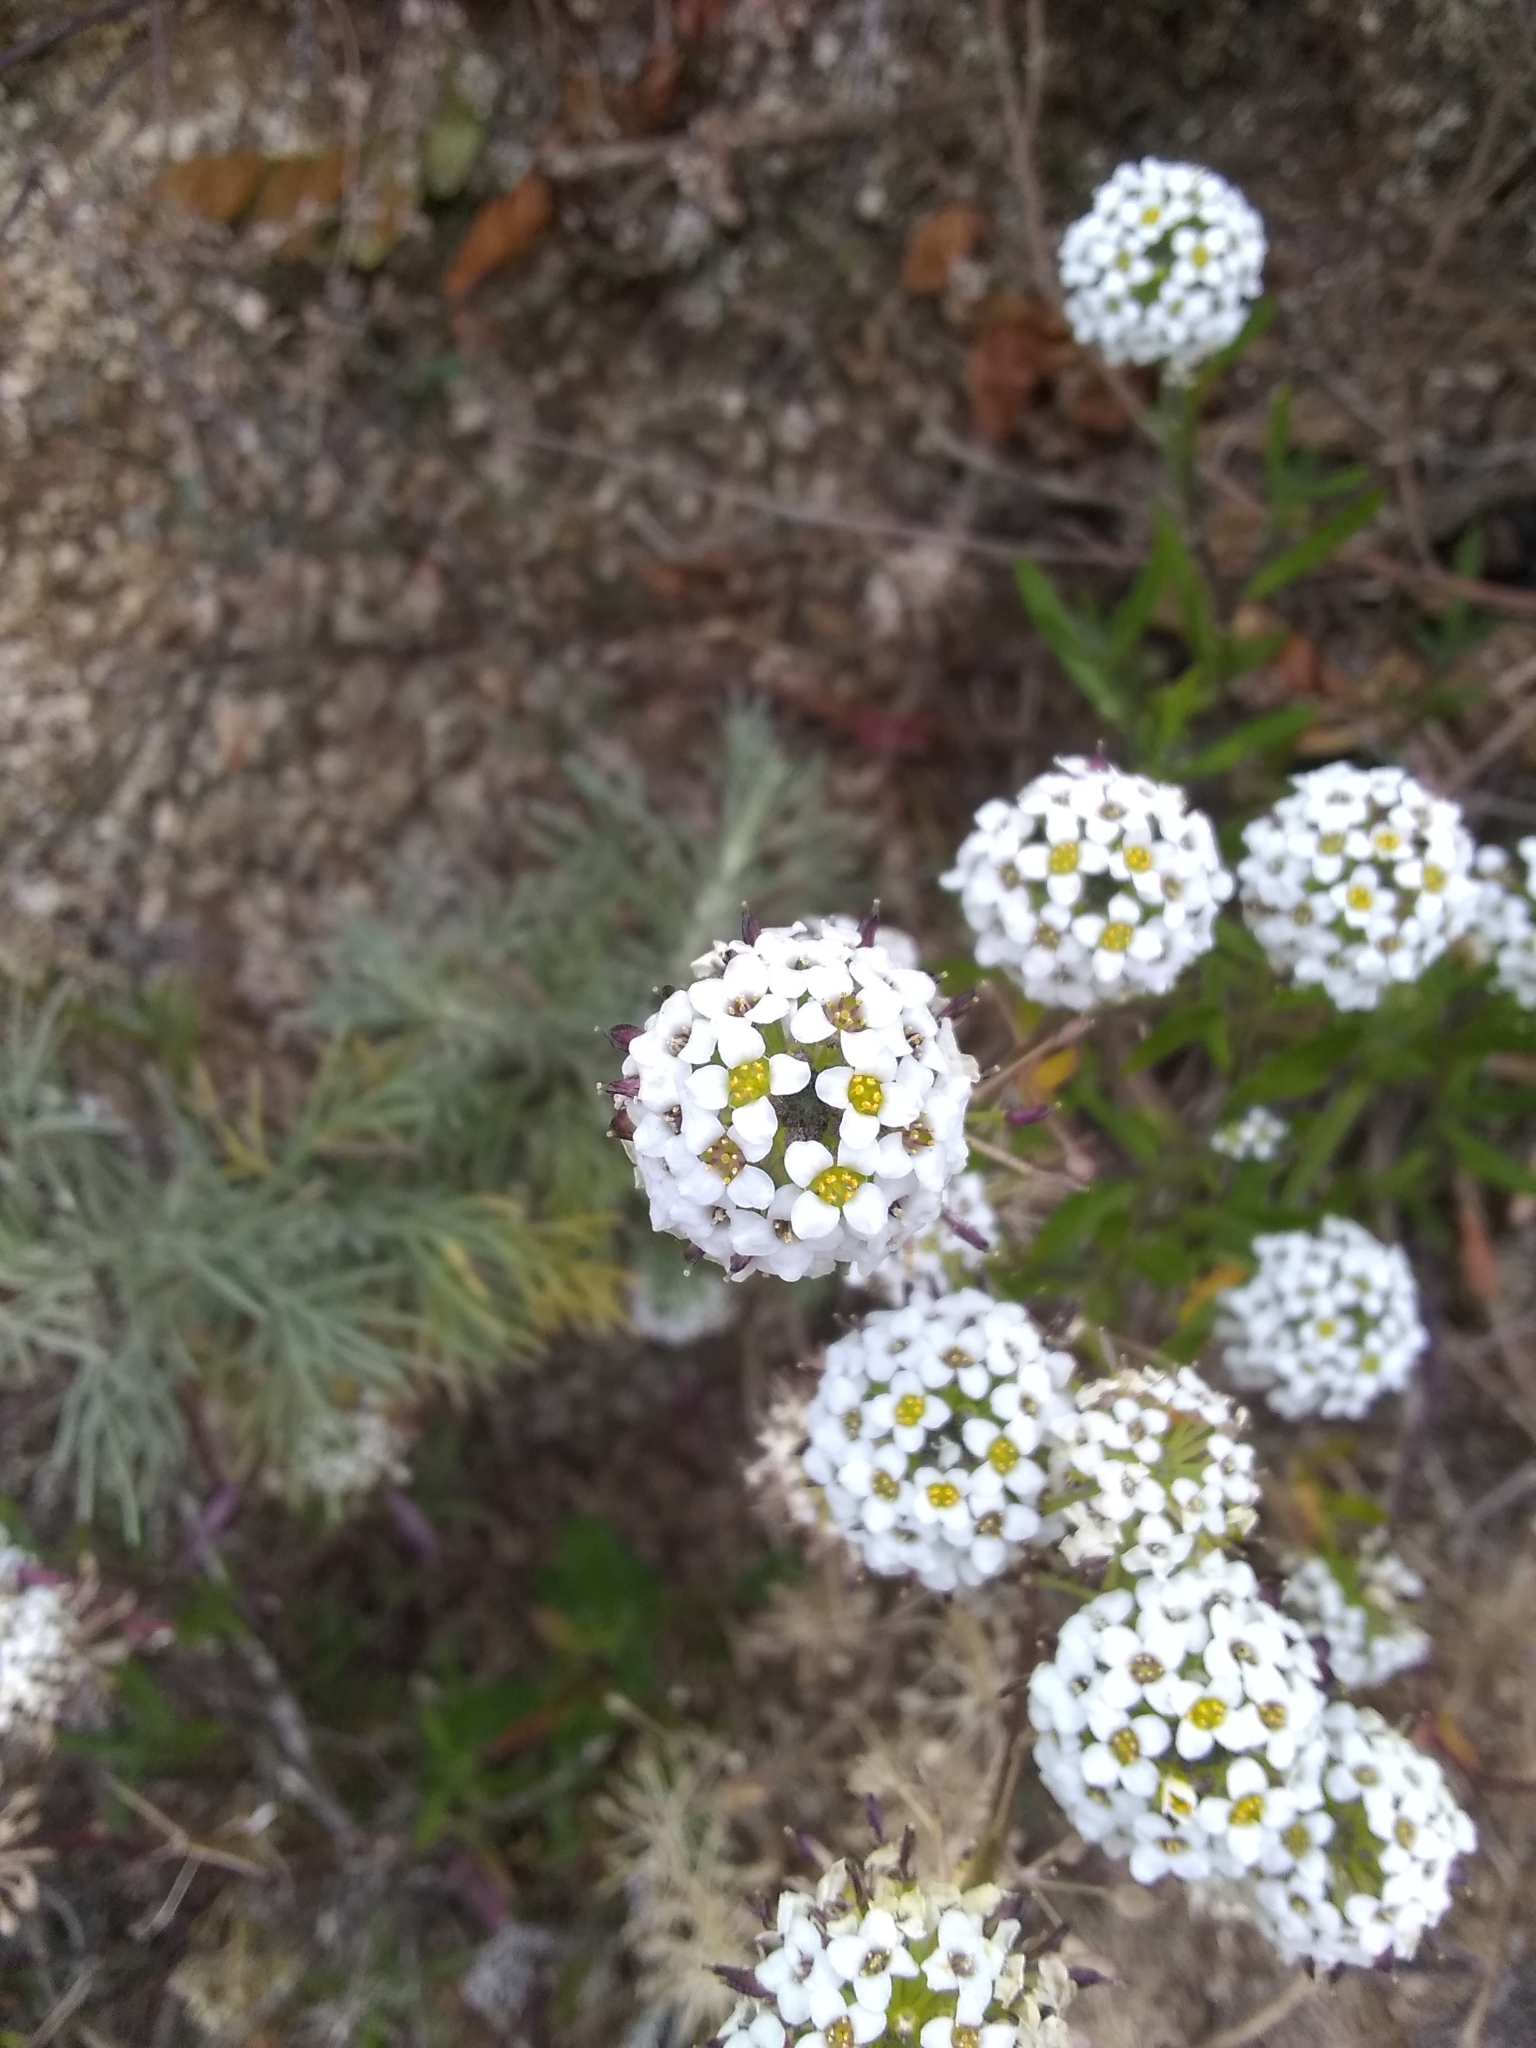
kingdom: Plantae
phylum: Tracheophyta
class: Magnoliopsida
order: Brassicales
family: Brassicaceae
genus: Lobularia
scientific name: Lobularia maritima
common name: Sweet alison
